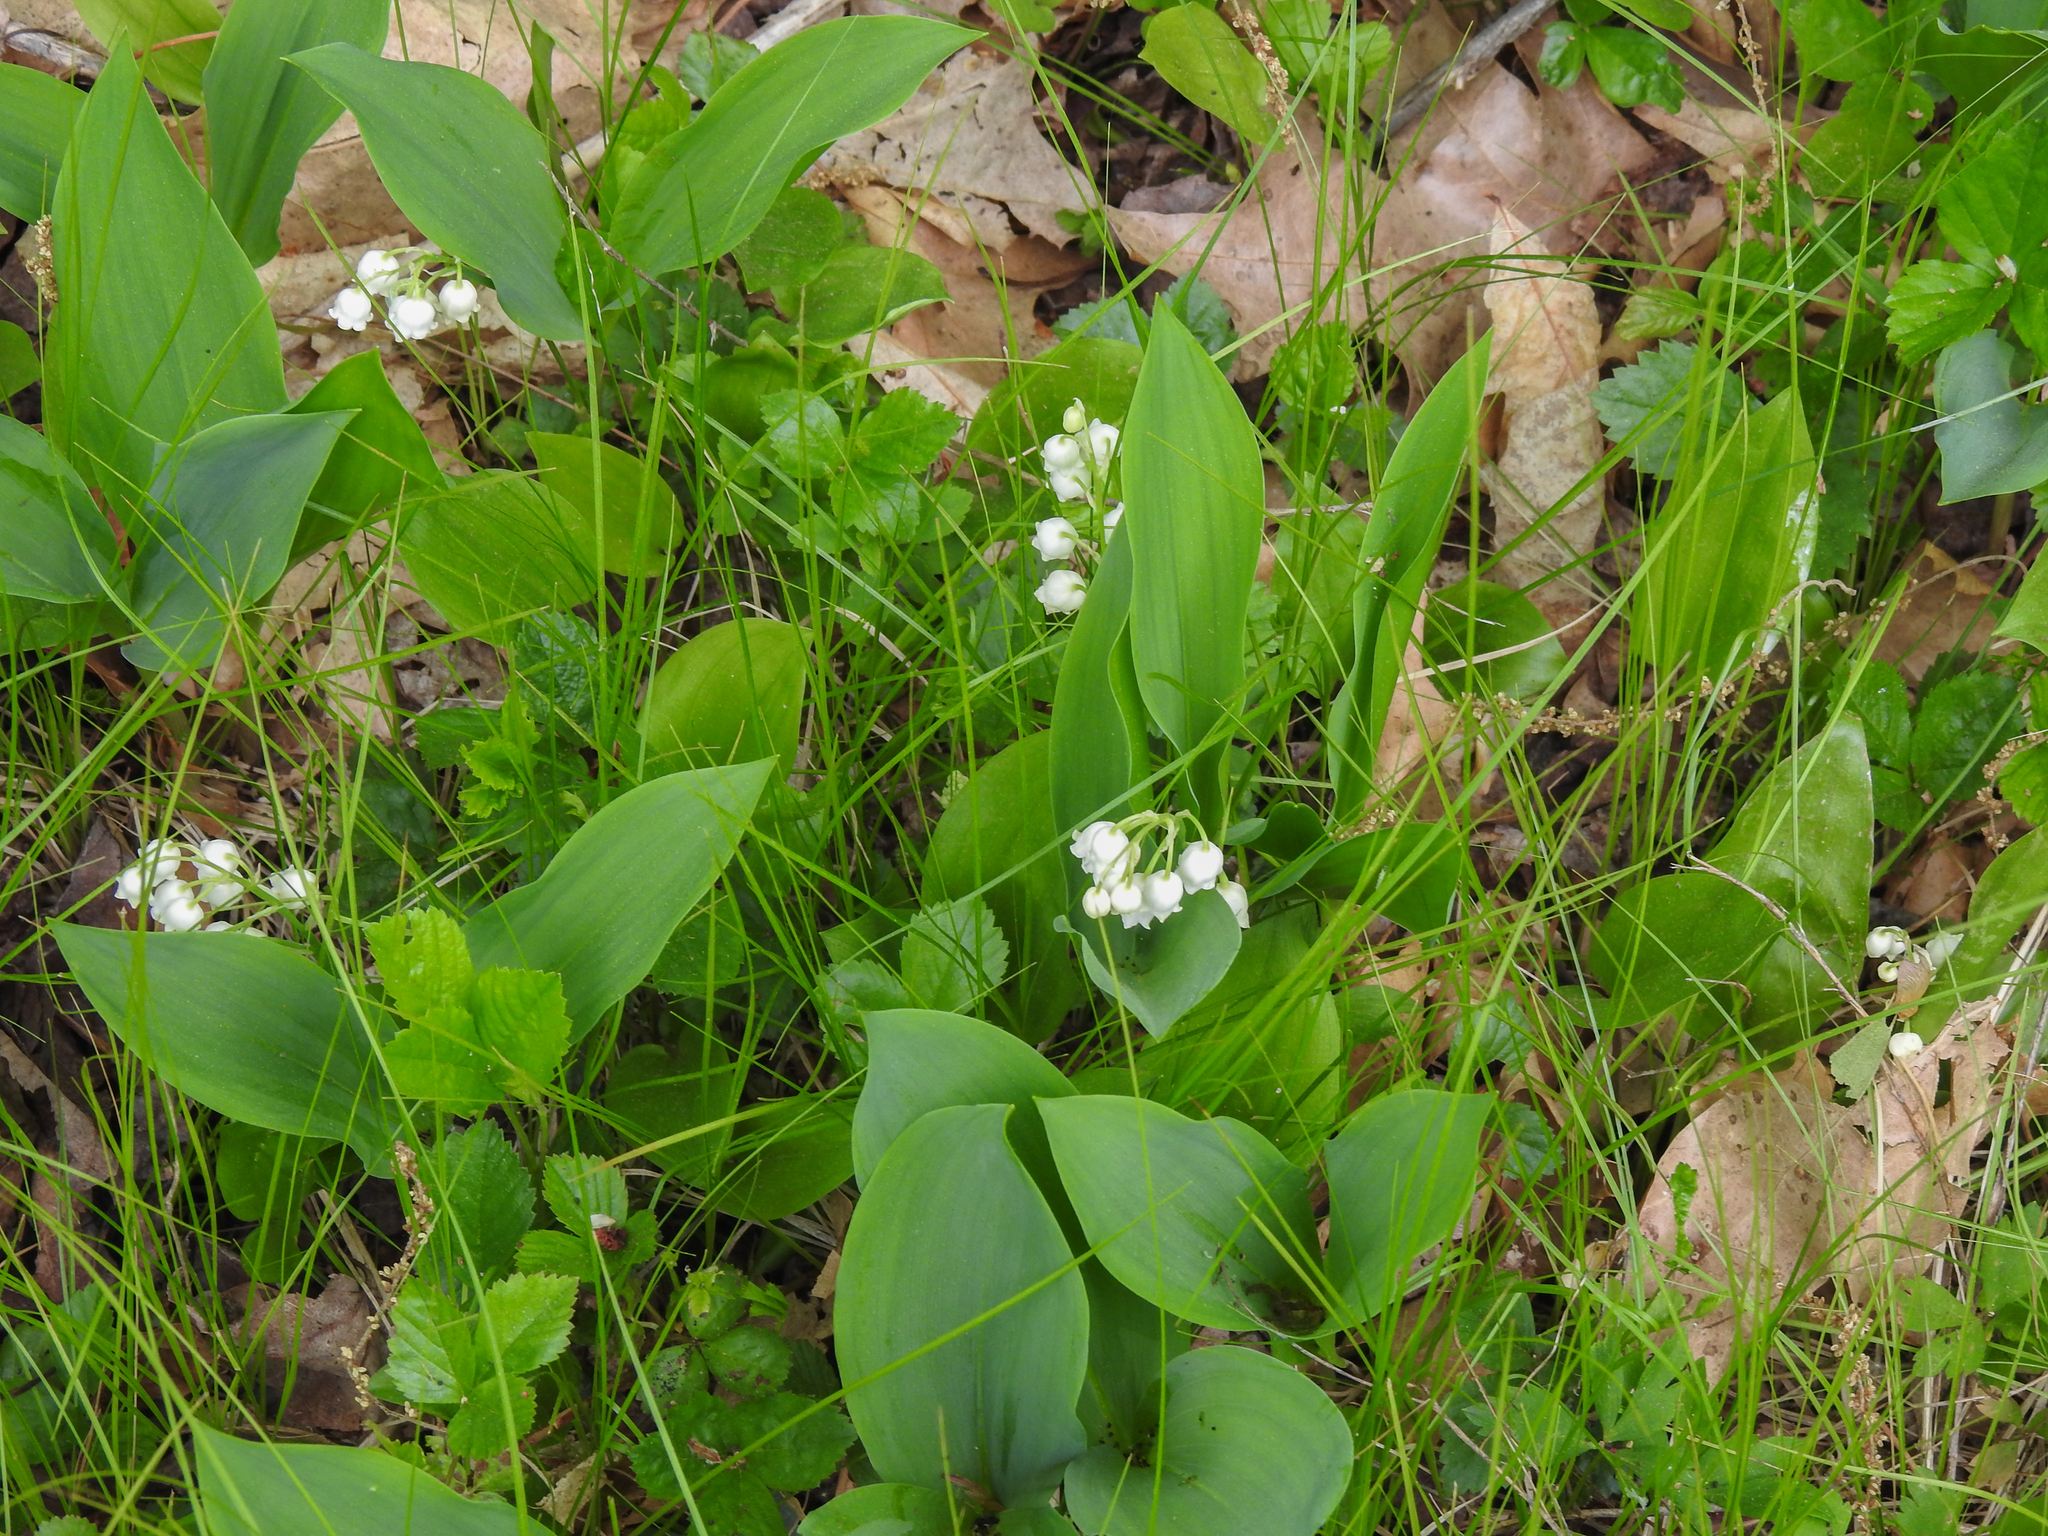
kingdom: Plantae
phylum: Tracheophyta
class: Liliopsida
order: Asparagales
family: Asparagaceae
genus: Convallaria
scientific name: Convallaria majalis
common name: Lily-of-the-valley
